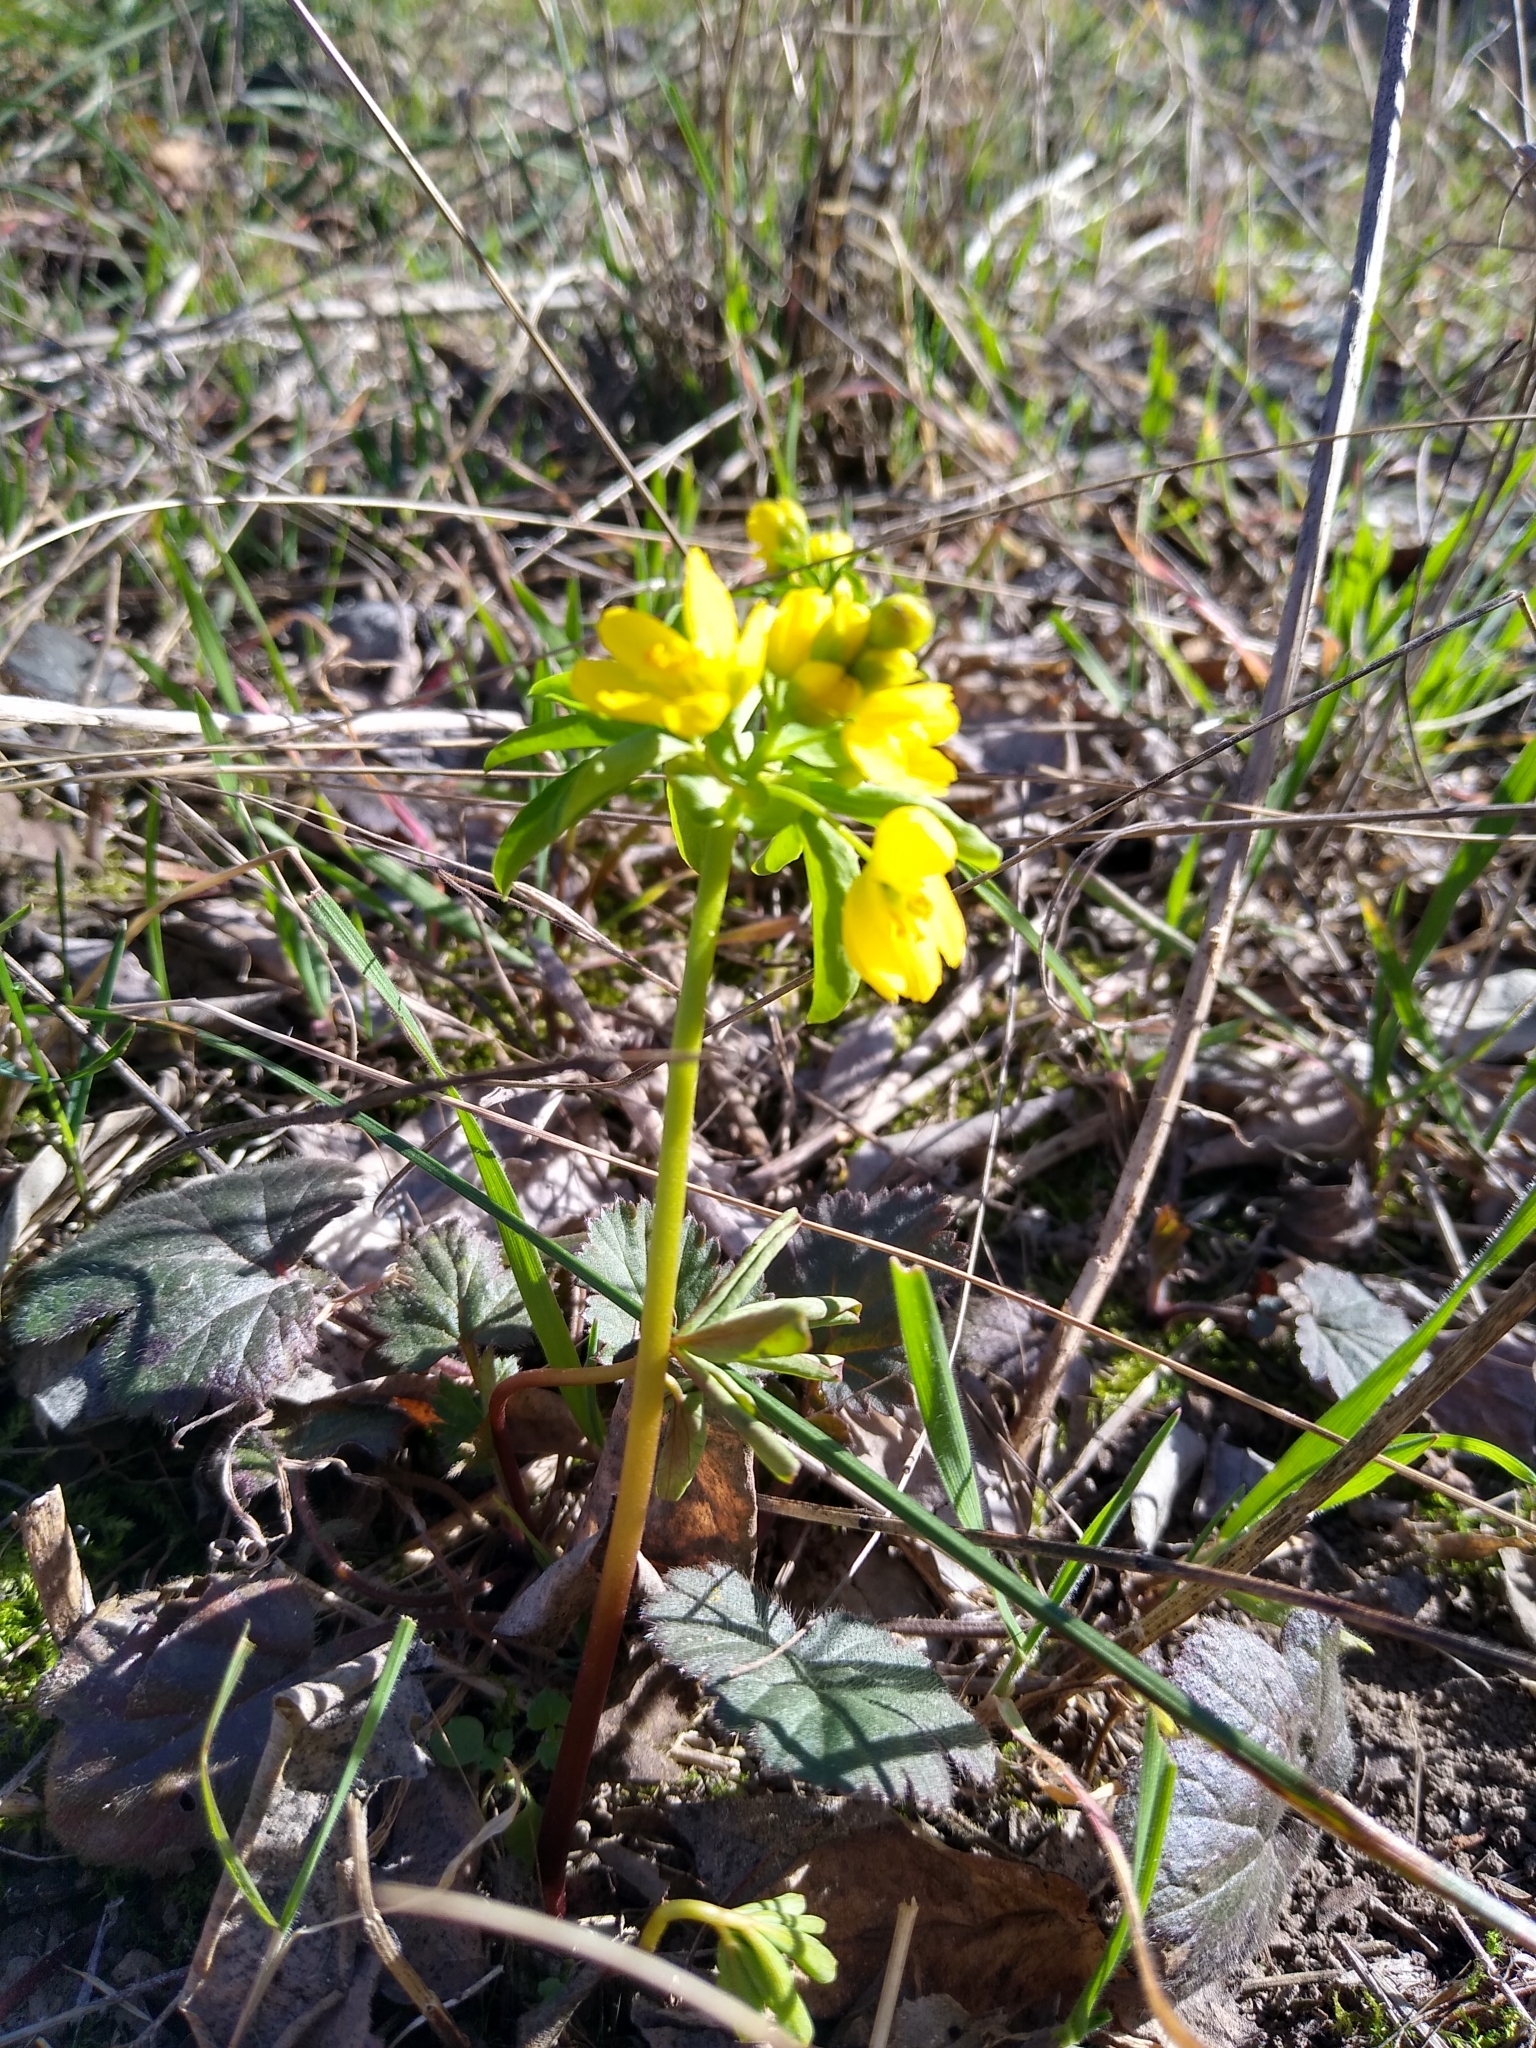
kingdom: Plantae
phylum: Tracheophyta
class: Magnoliopsida
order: Ranunculales
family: Berberidaceae
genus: Gymnospermium
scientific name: Gymnospermium odessanum
